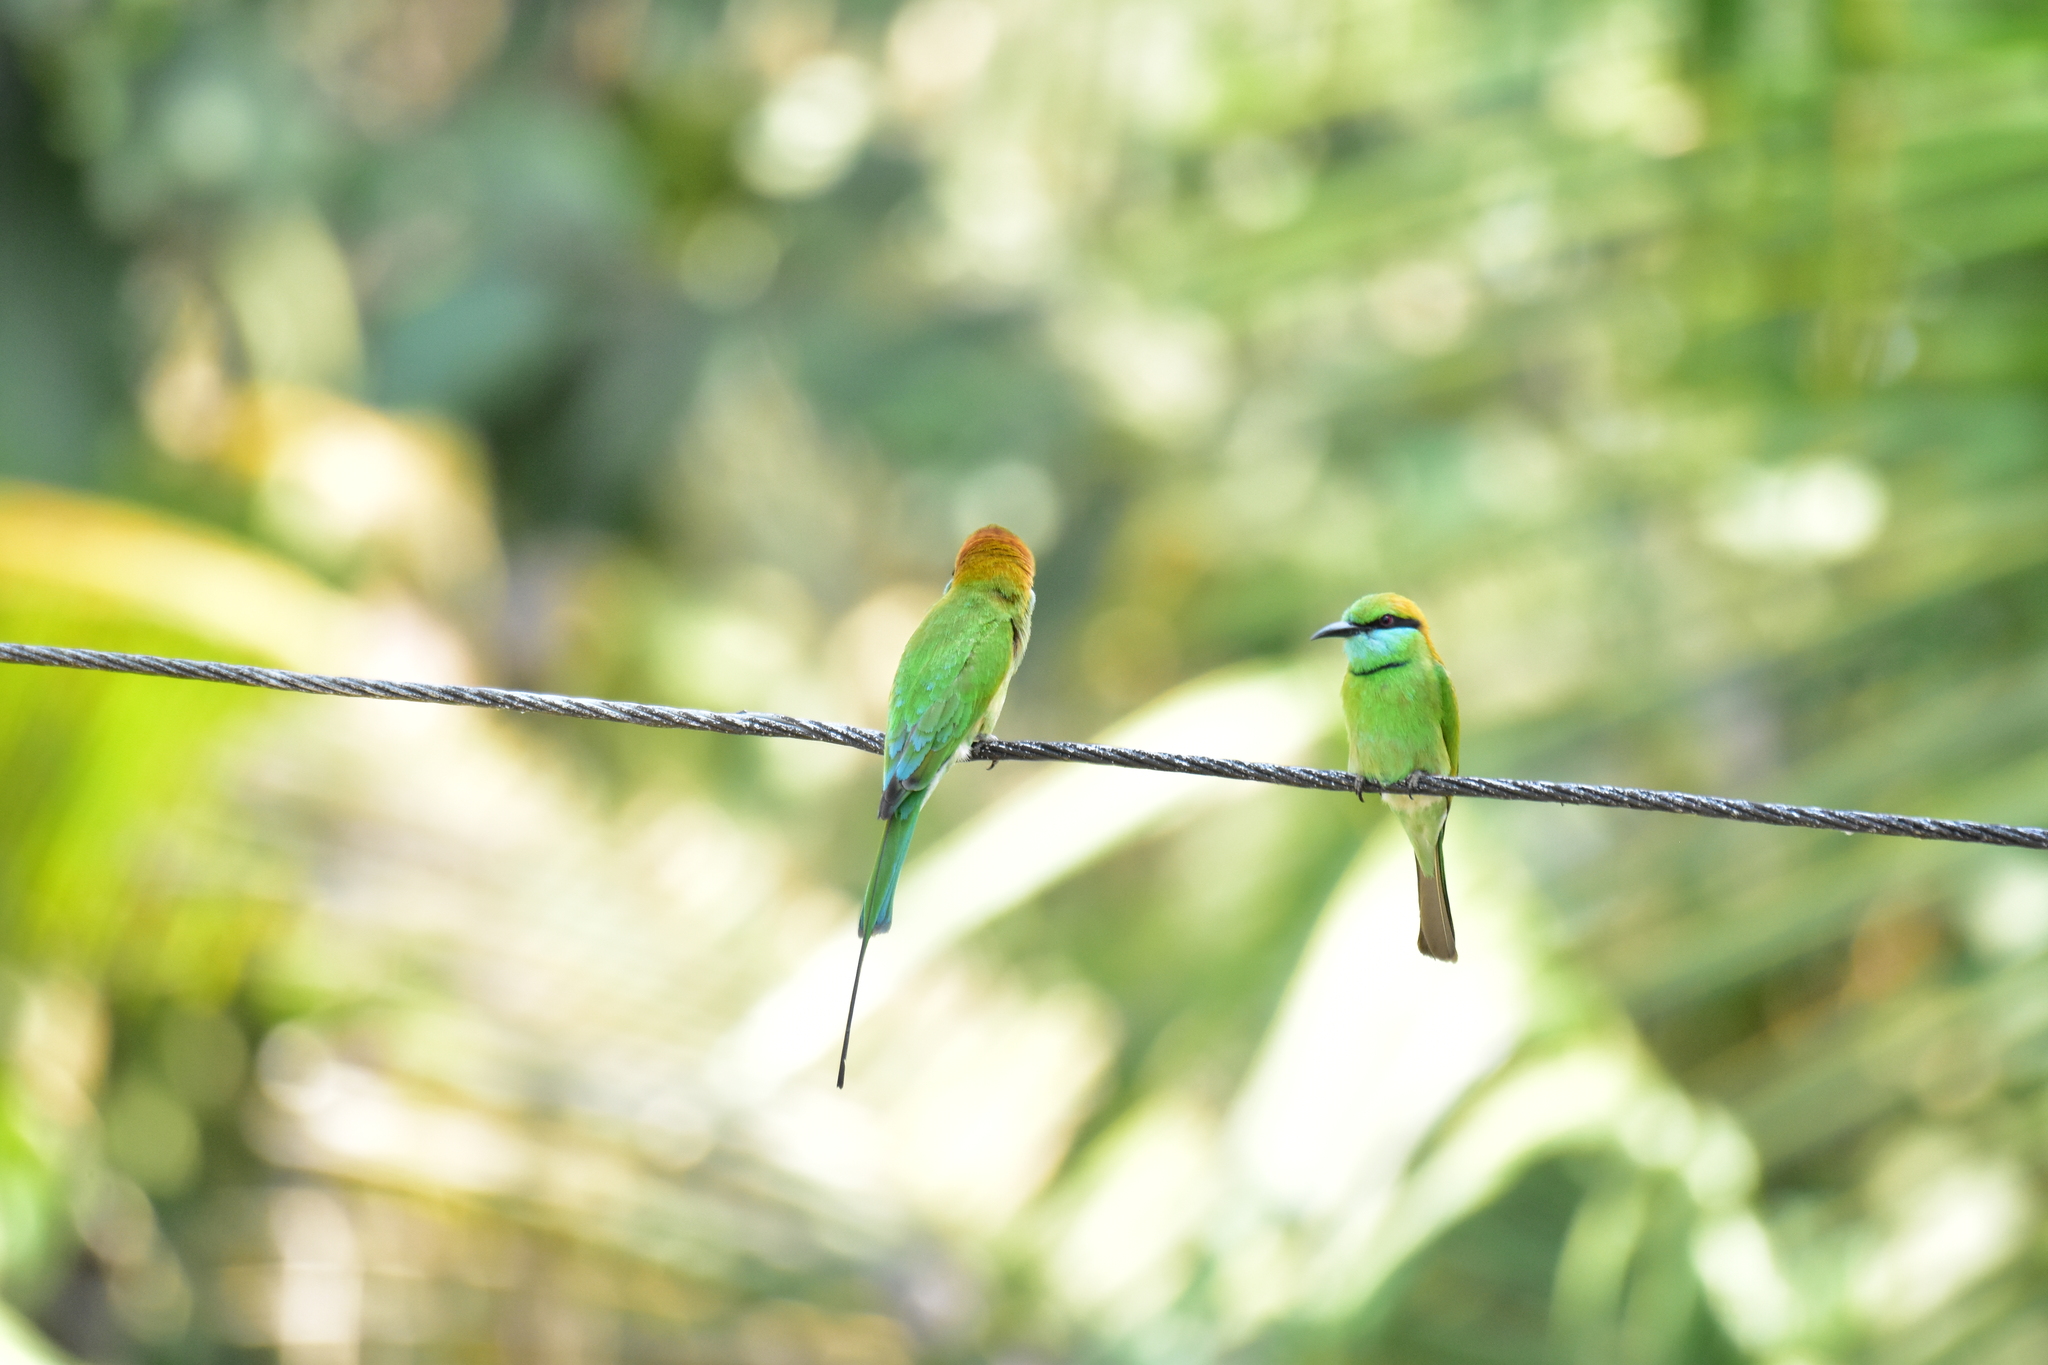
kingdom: Animalia
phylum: Chordata
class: Aves
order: Coraciiformes
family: Meropidae
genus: Merops
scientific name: Merops orientalis
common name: Green bee-eater
